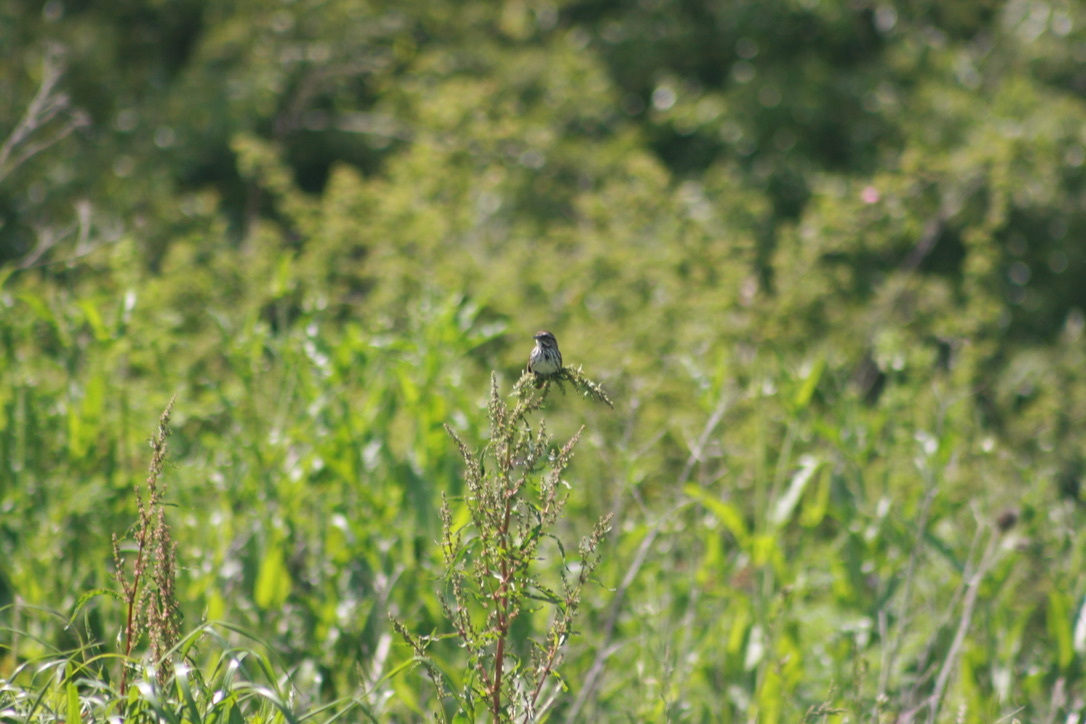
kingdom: Animalia
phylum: Chordata
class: Aves
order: Passeriformes
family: Passerellidae
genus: Melospiza
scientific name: Melospiza melodia
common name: Song sparrow
